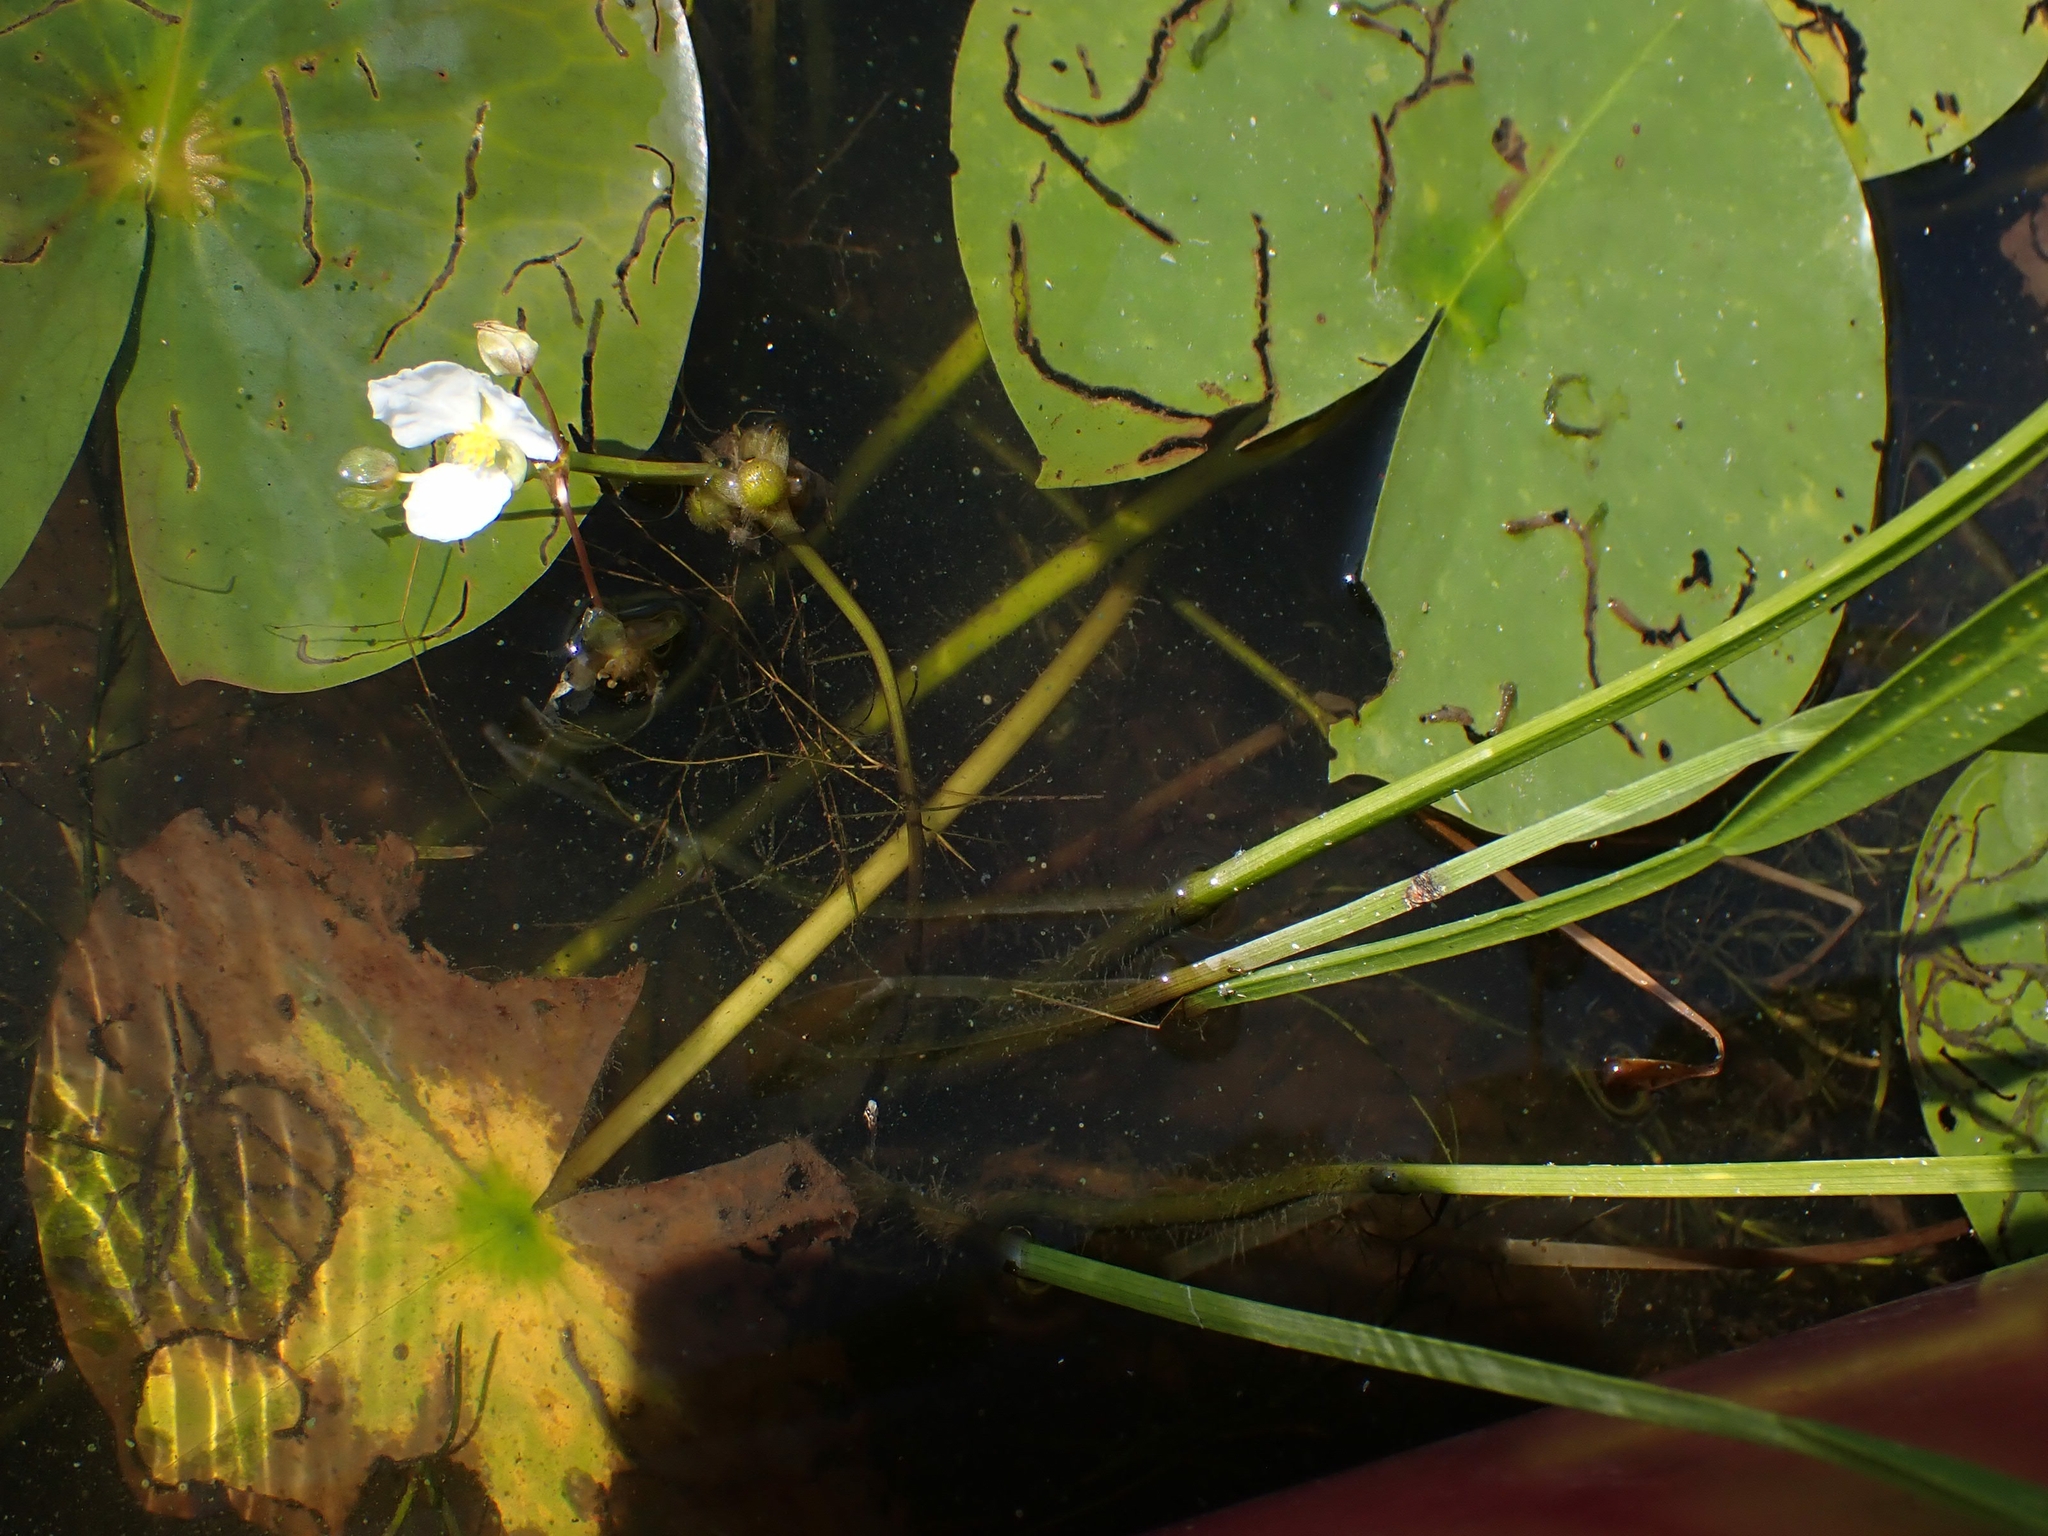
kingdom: Plantae
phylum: Tracheophyta
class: Liliopsida
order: Alismatales
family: Alismataceae
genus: Sagittaria
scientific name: Sagittaria rigida
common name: Canadian arrowhead
